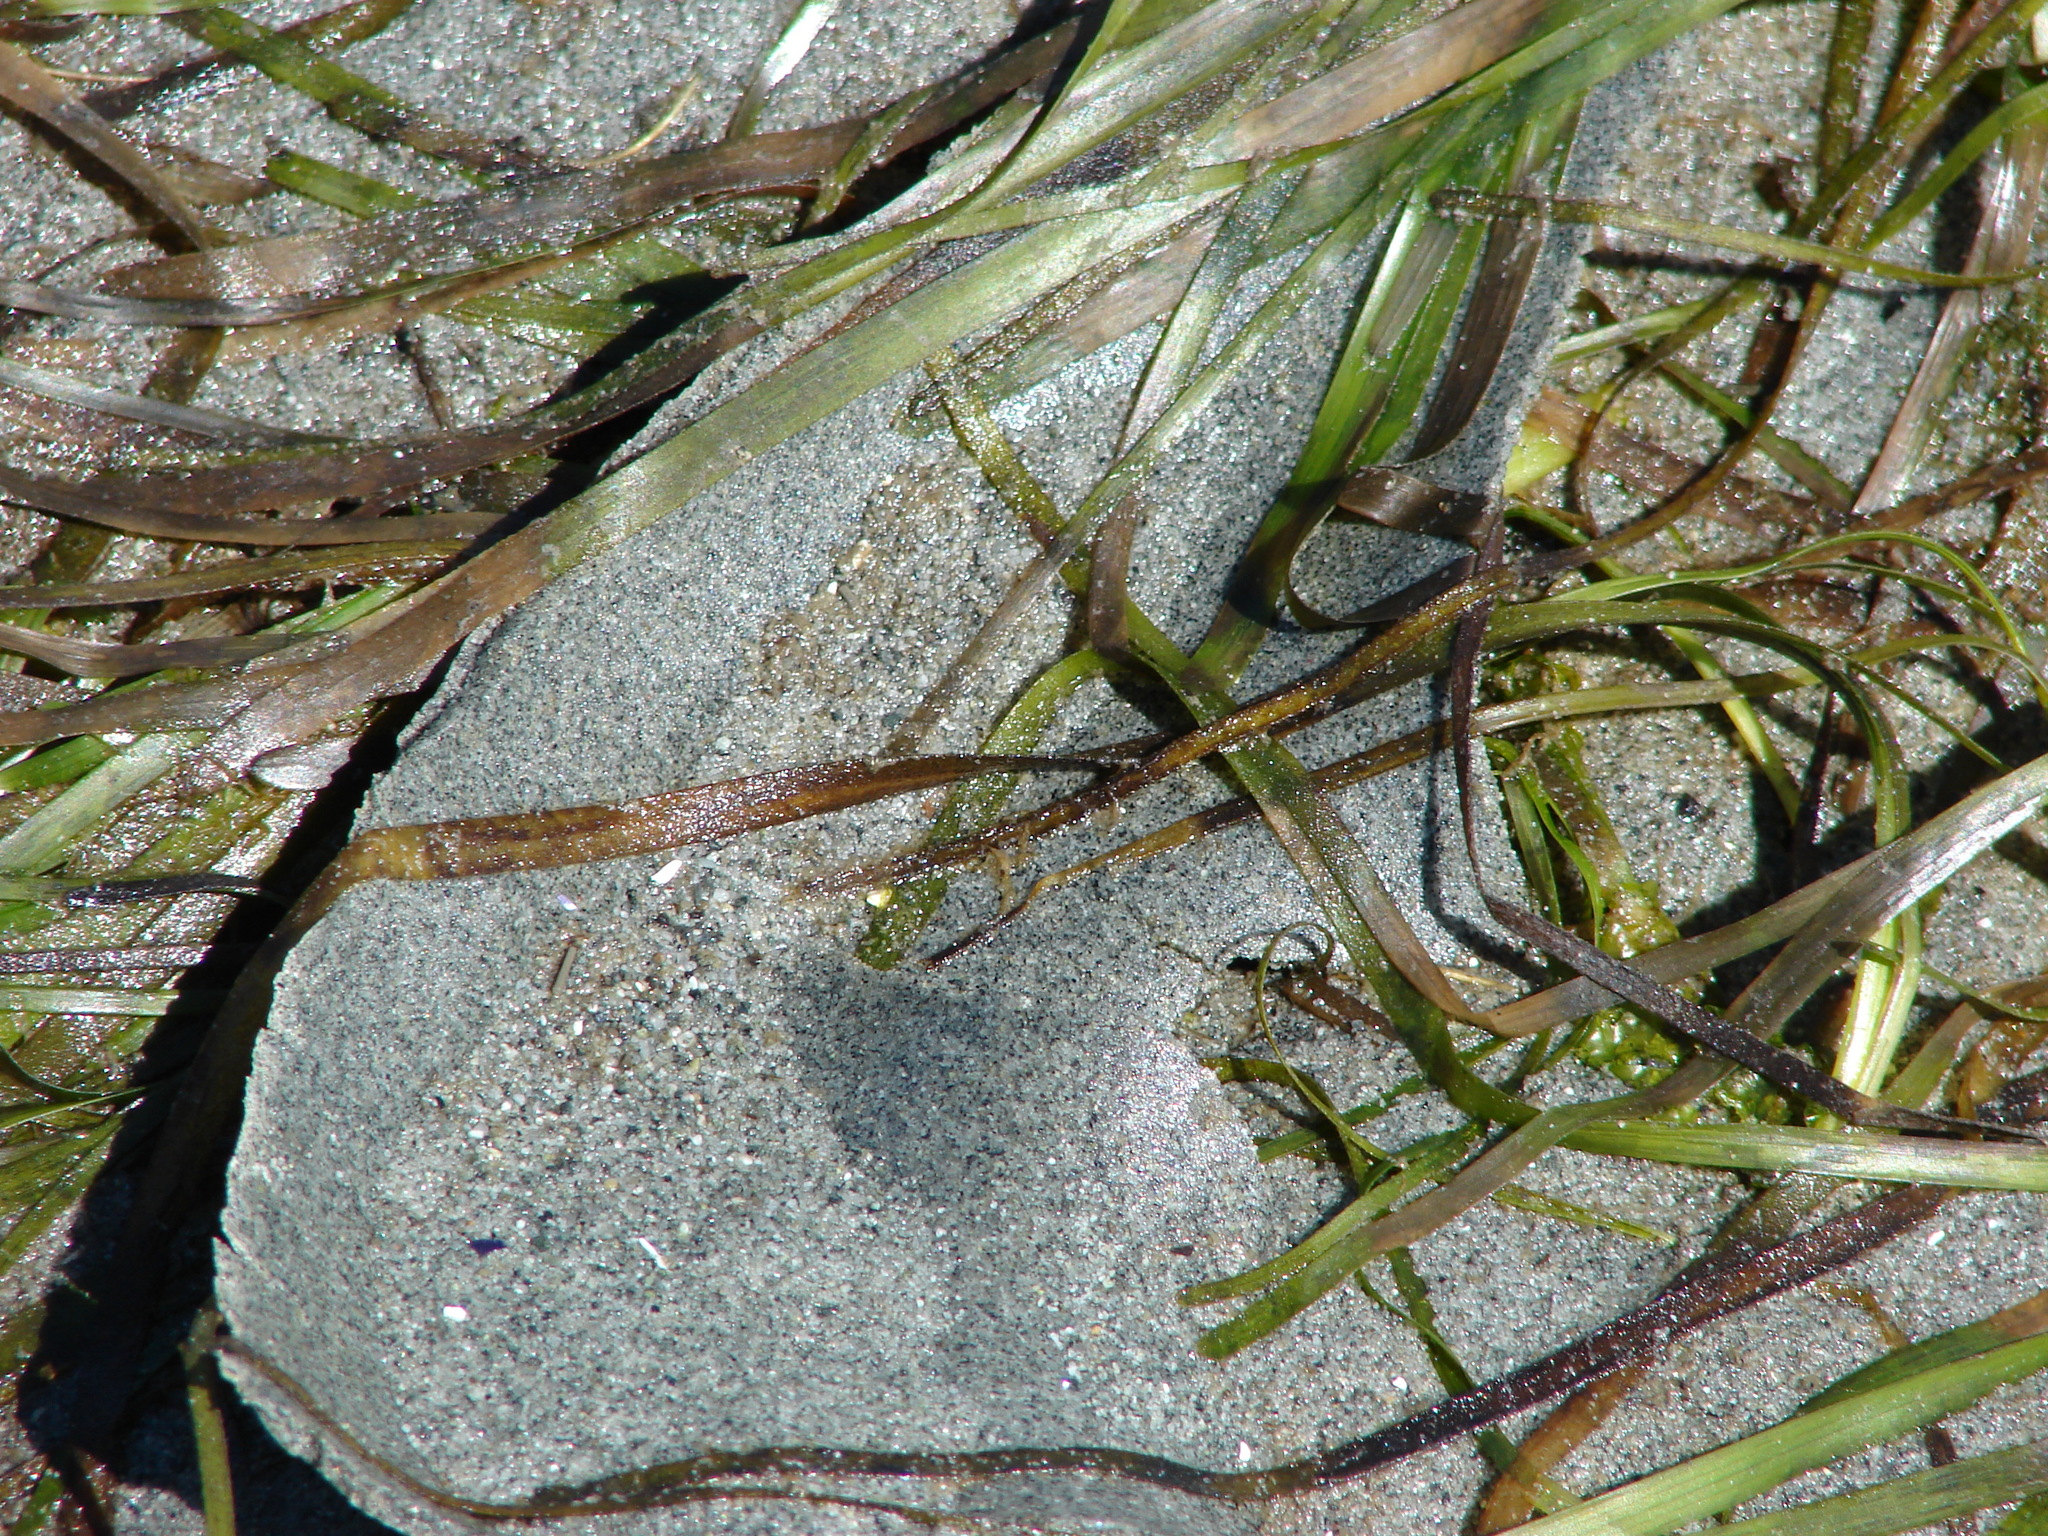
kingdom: Animalia
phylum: Mollusca
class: Gastropoda
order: Littorinimorpha
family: Naticidae
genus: Neverita
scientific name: Neverita lewisii
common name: Lewis' moonsnail
